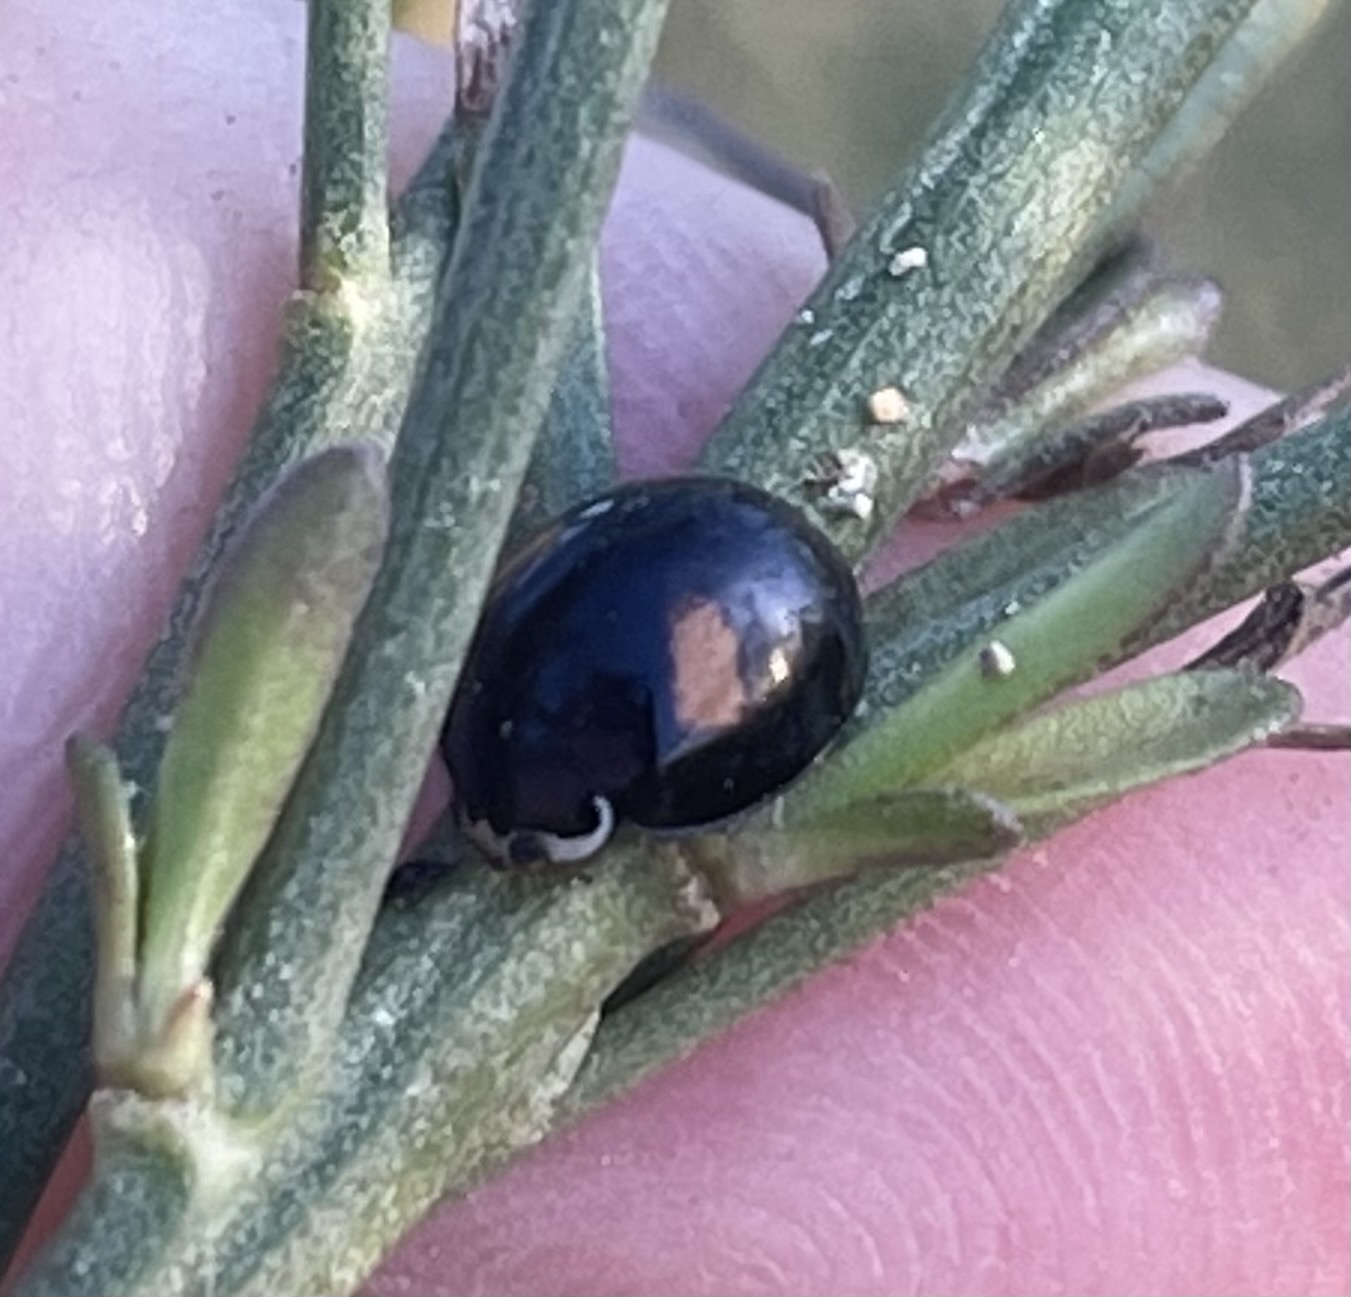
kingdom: Animalia
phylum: Arthropoda
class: Insecta
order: Coleoptera
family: Coccinellidae
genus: Olla
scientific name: Olla v-nigrum
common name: Ashy gray lady beetle
